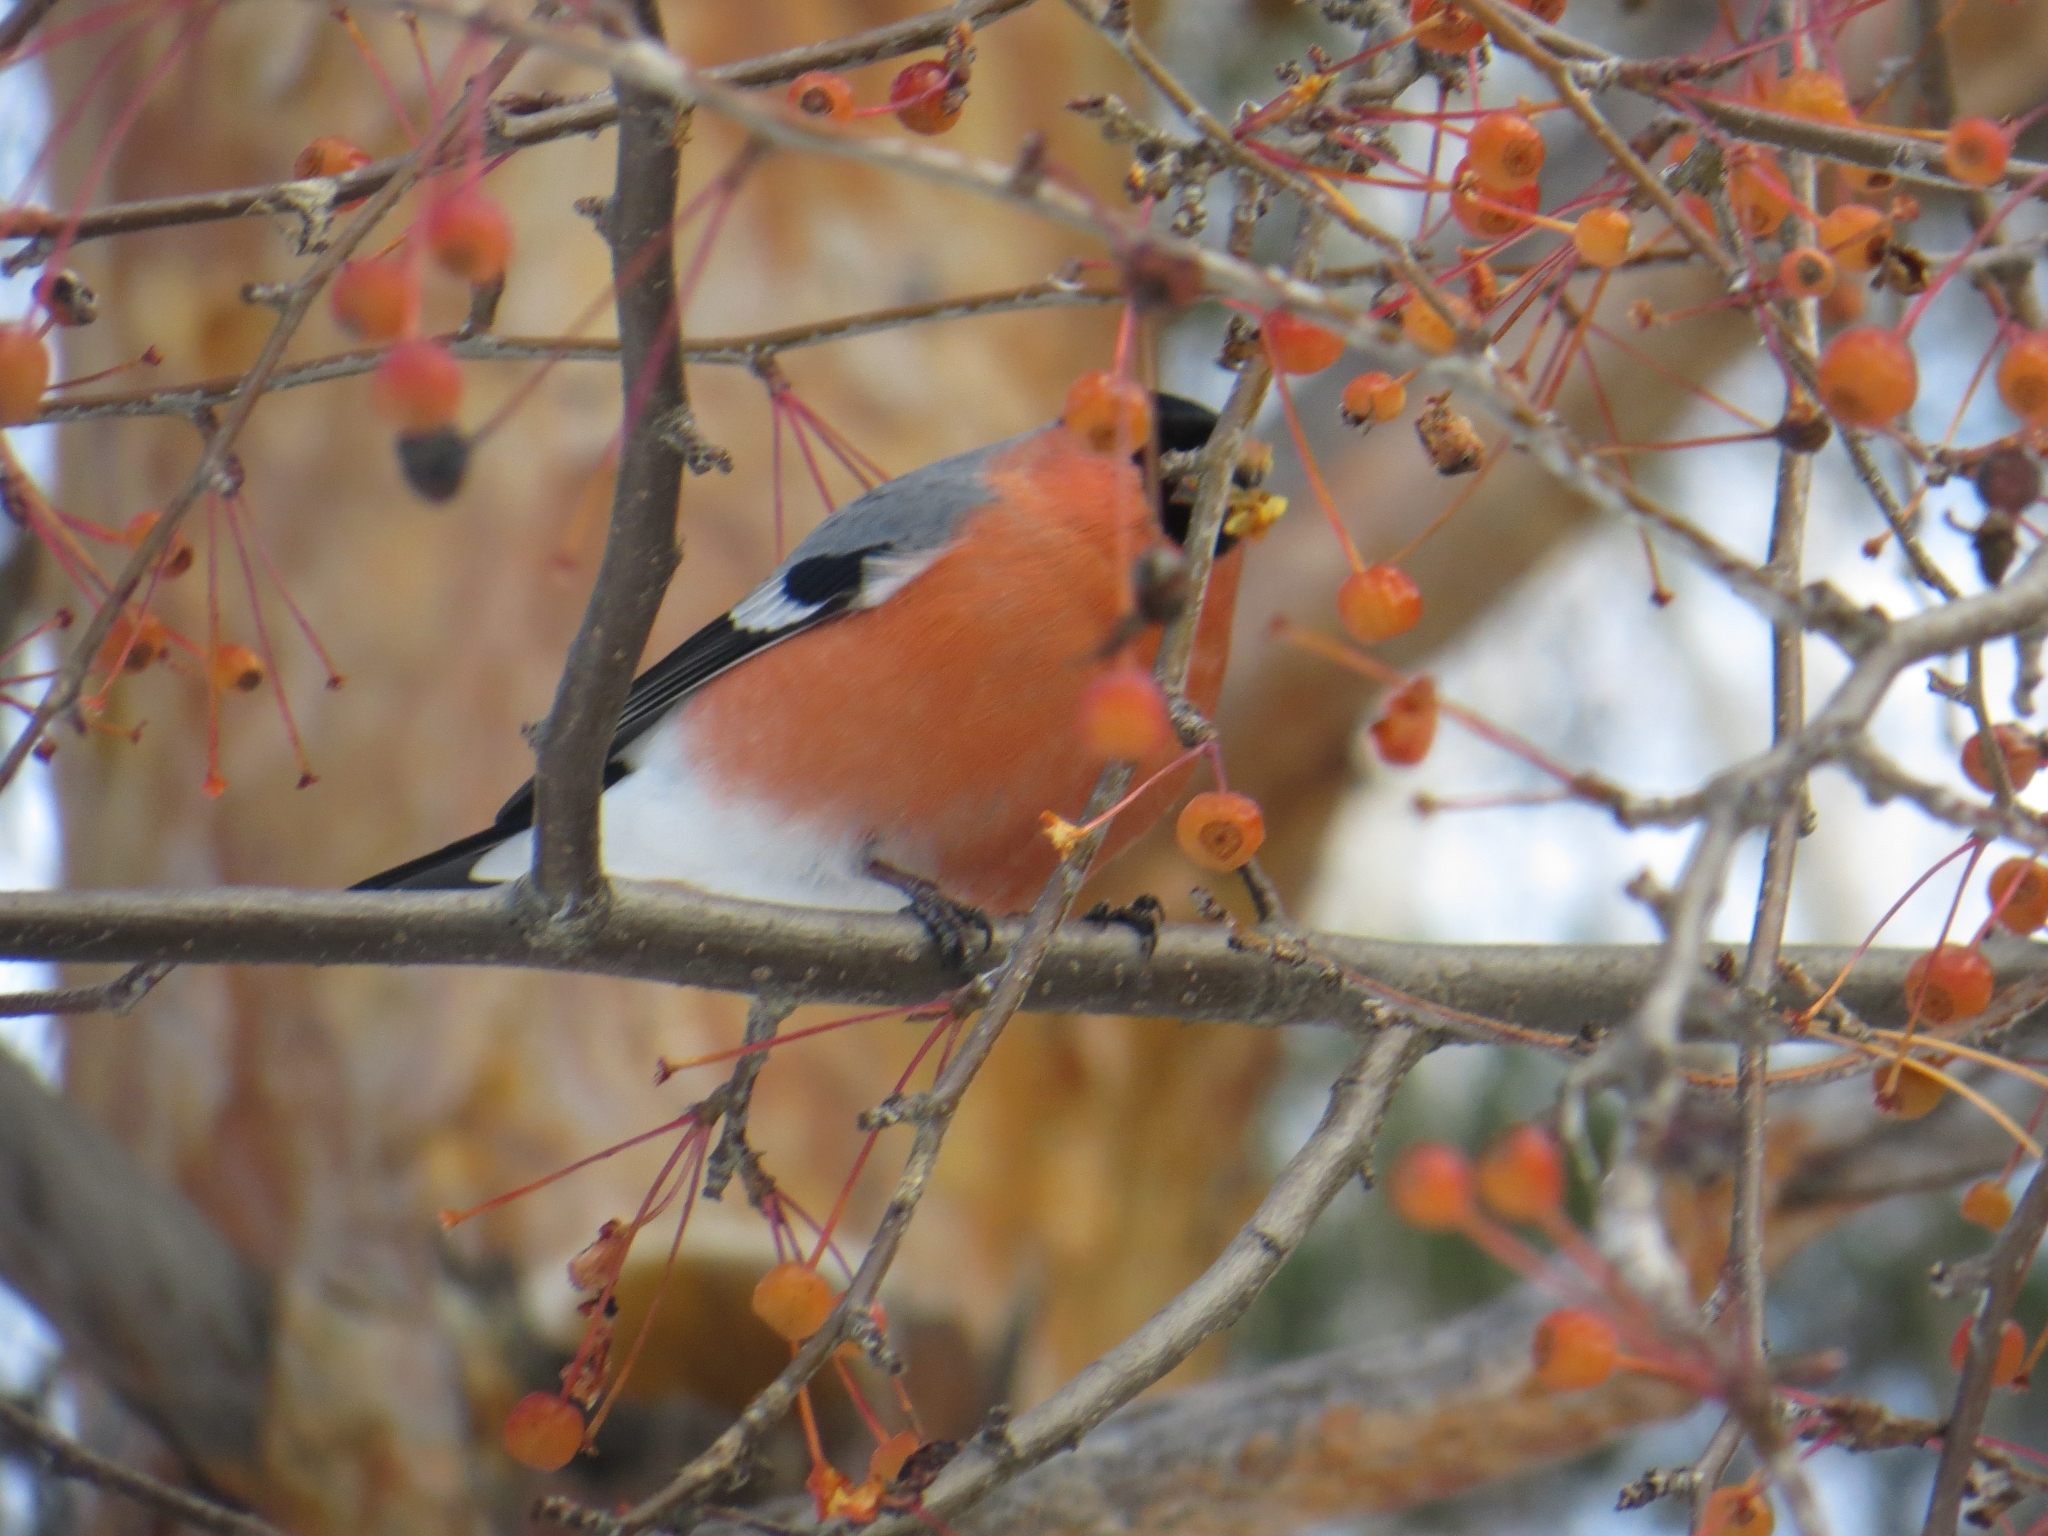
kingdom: Animalia
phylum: Chordata
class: Aves
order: Passeriformes
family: Fringillidae
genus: Pyrrhula
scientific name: Pyrrhula pyrrhula
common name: Eurasian bullfinch
